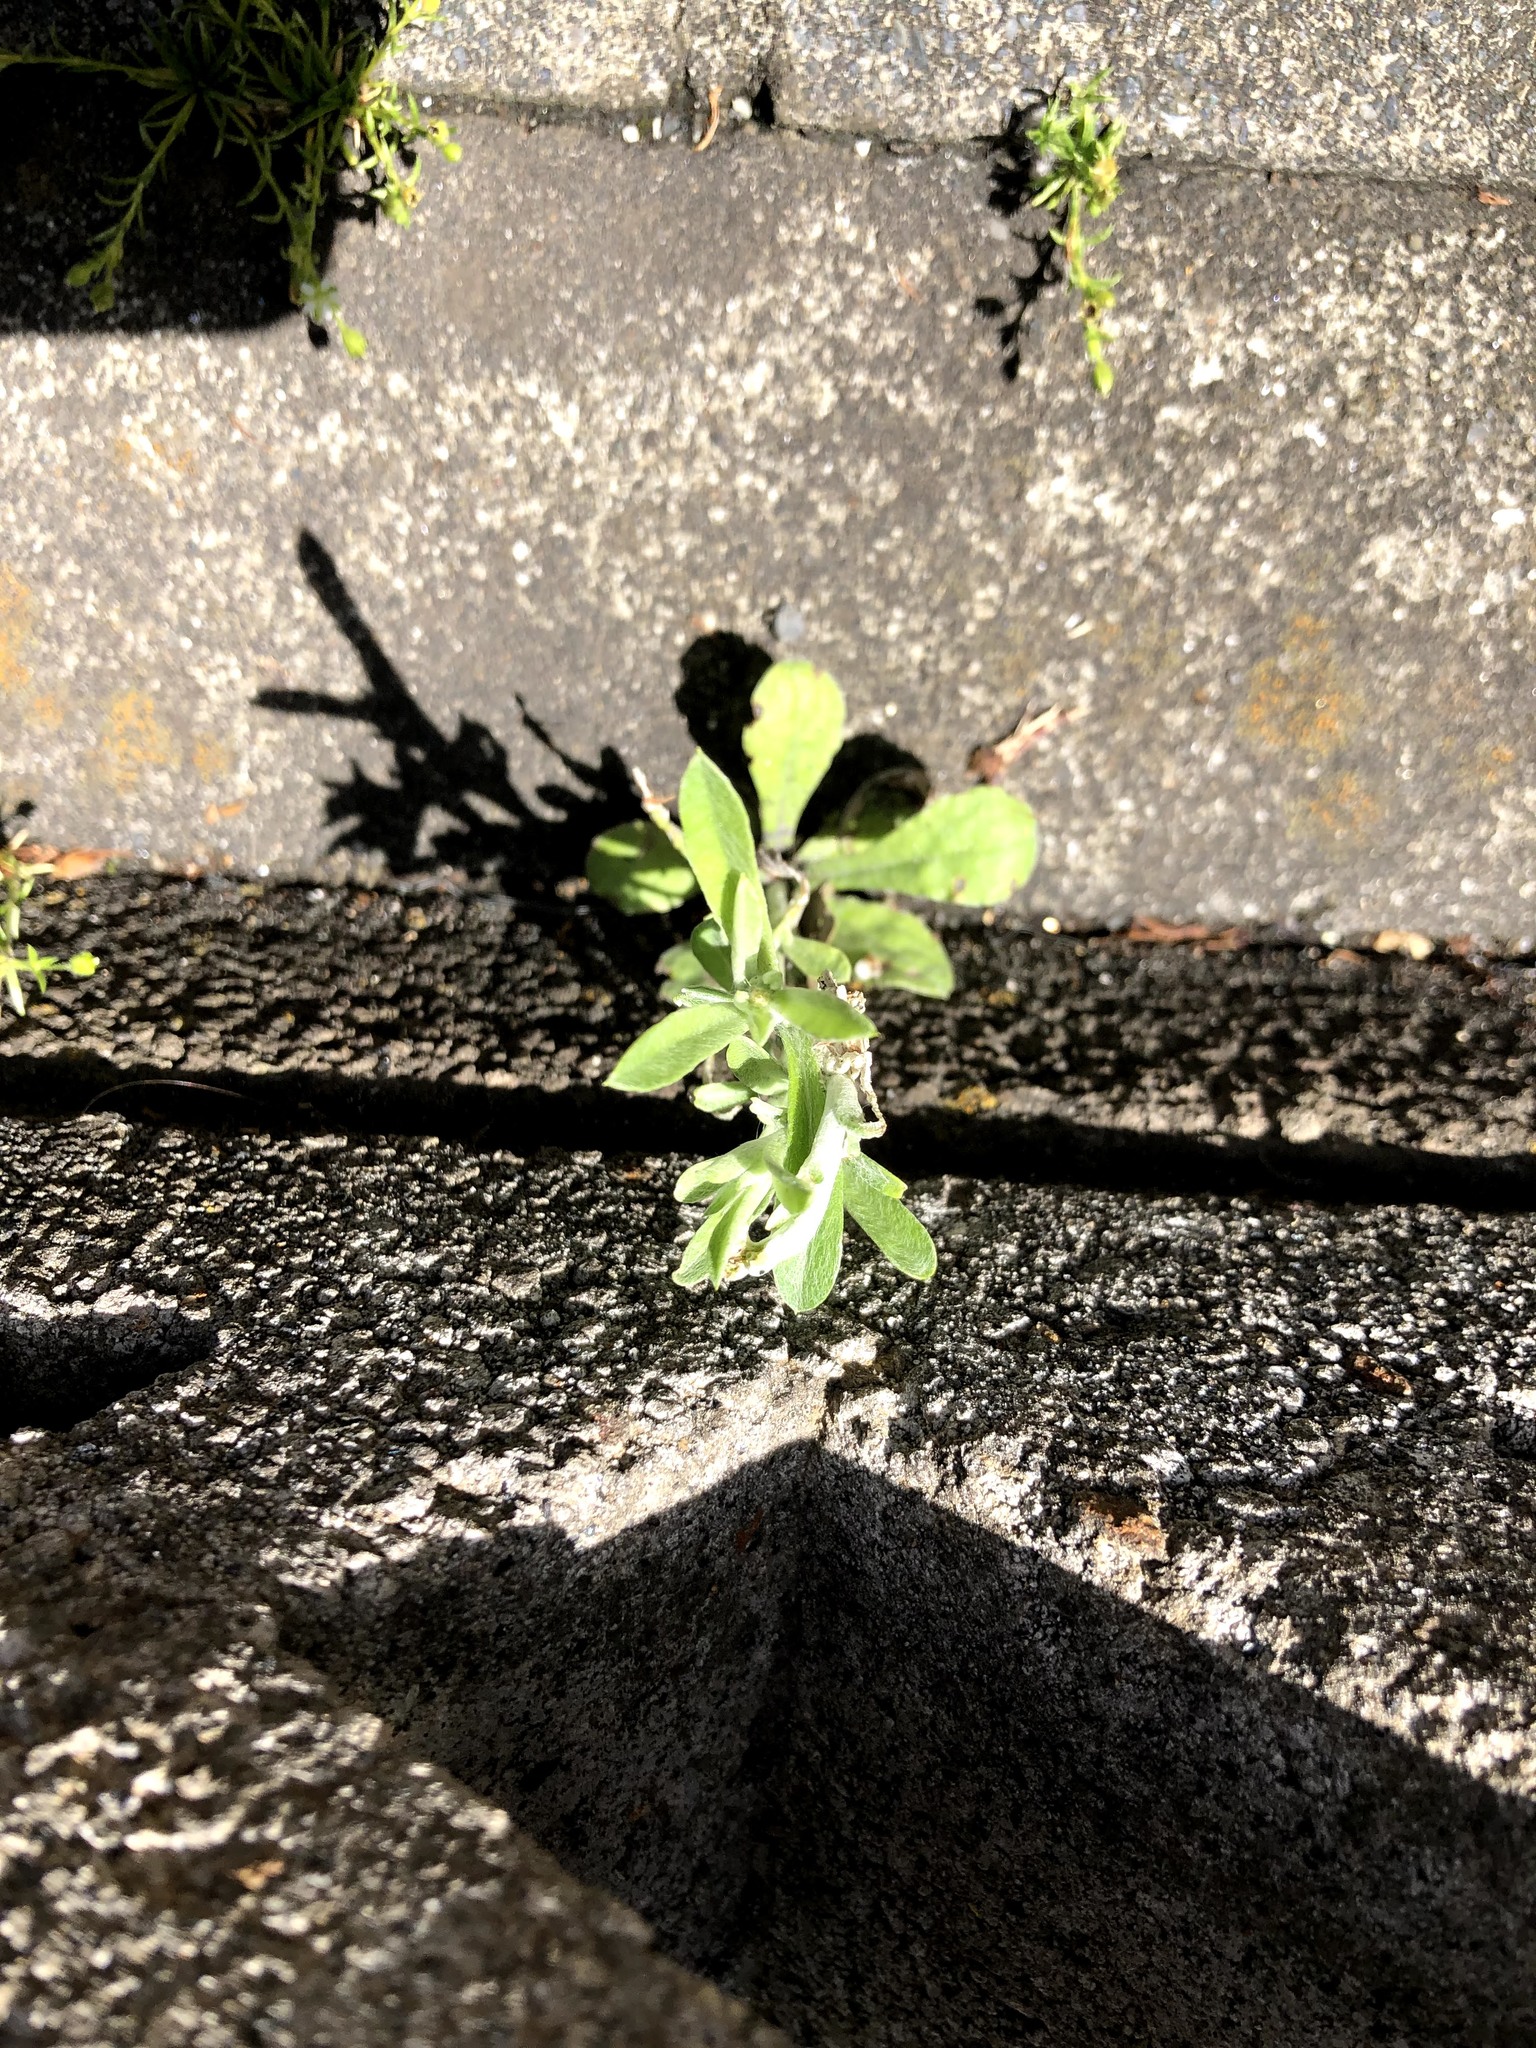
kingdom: Plantae
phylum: Tracheophyta
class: Magnoliopsida
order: Asterales
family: Asteraceae
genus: Pseudognaphalium
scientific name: Pseudognaphalium affine
